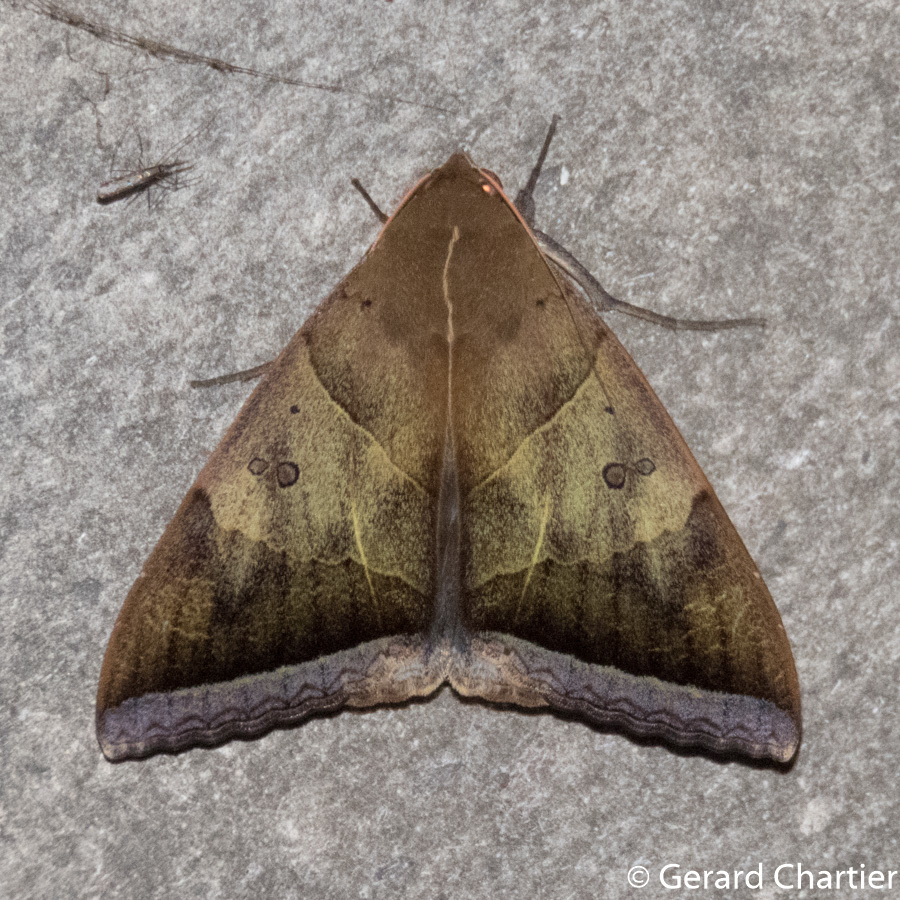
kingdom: Animalia
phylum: Arthropoda
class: Insecta
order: Lepidoptera
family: Erebidae
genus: Artena
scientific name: Artena dotata
